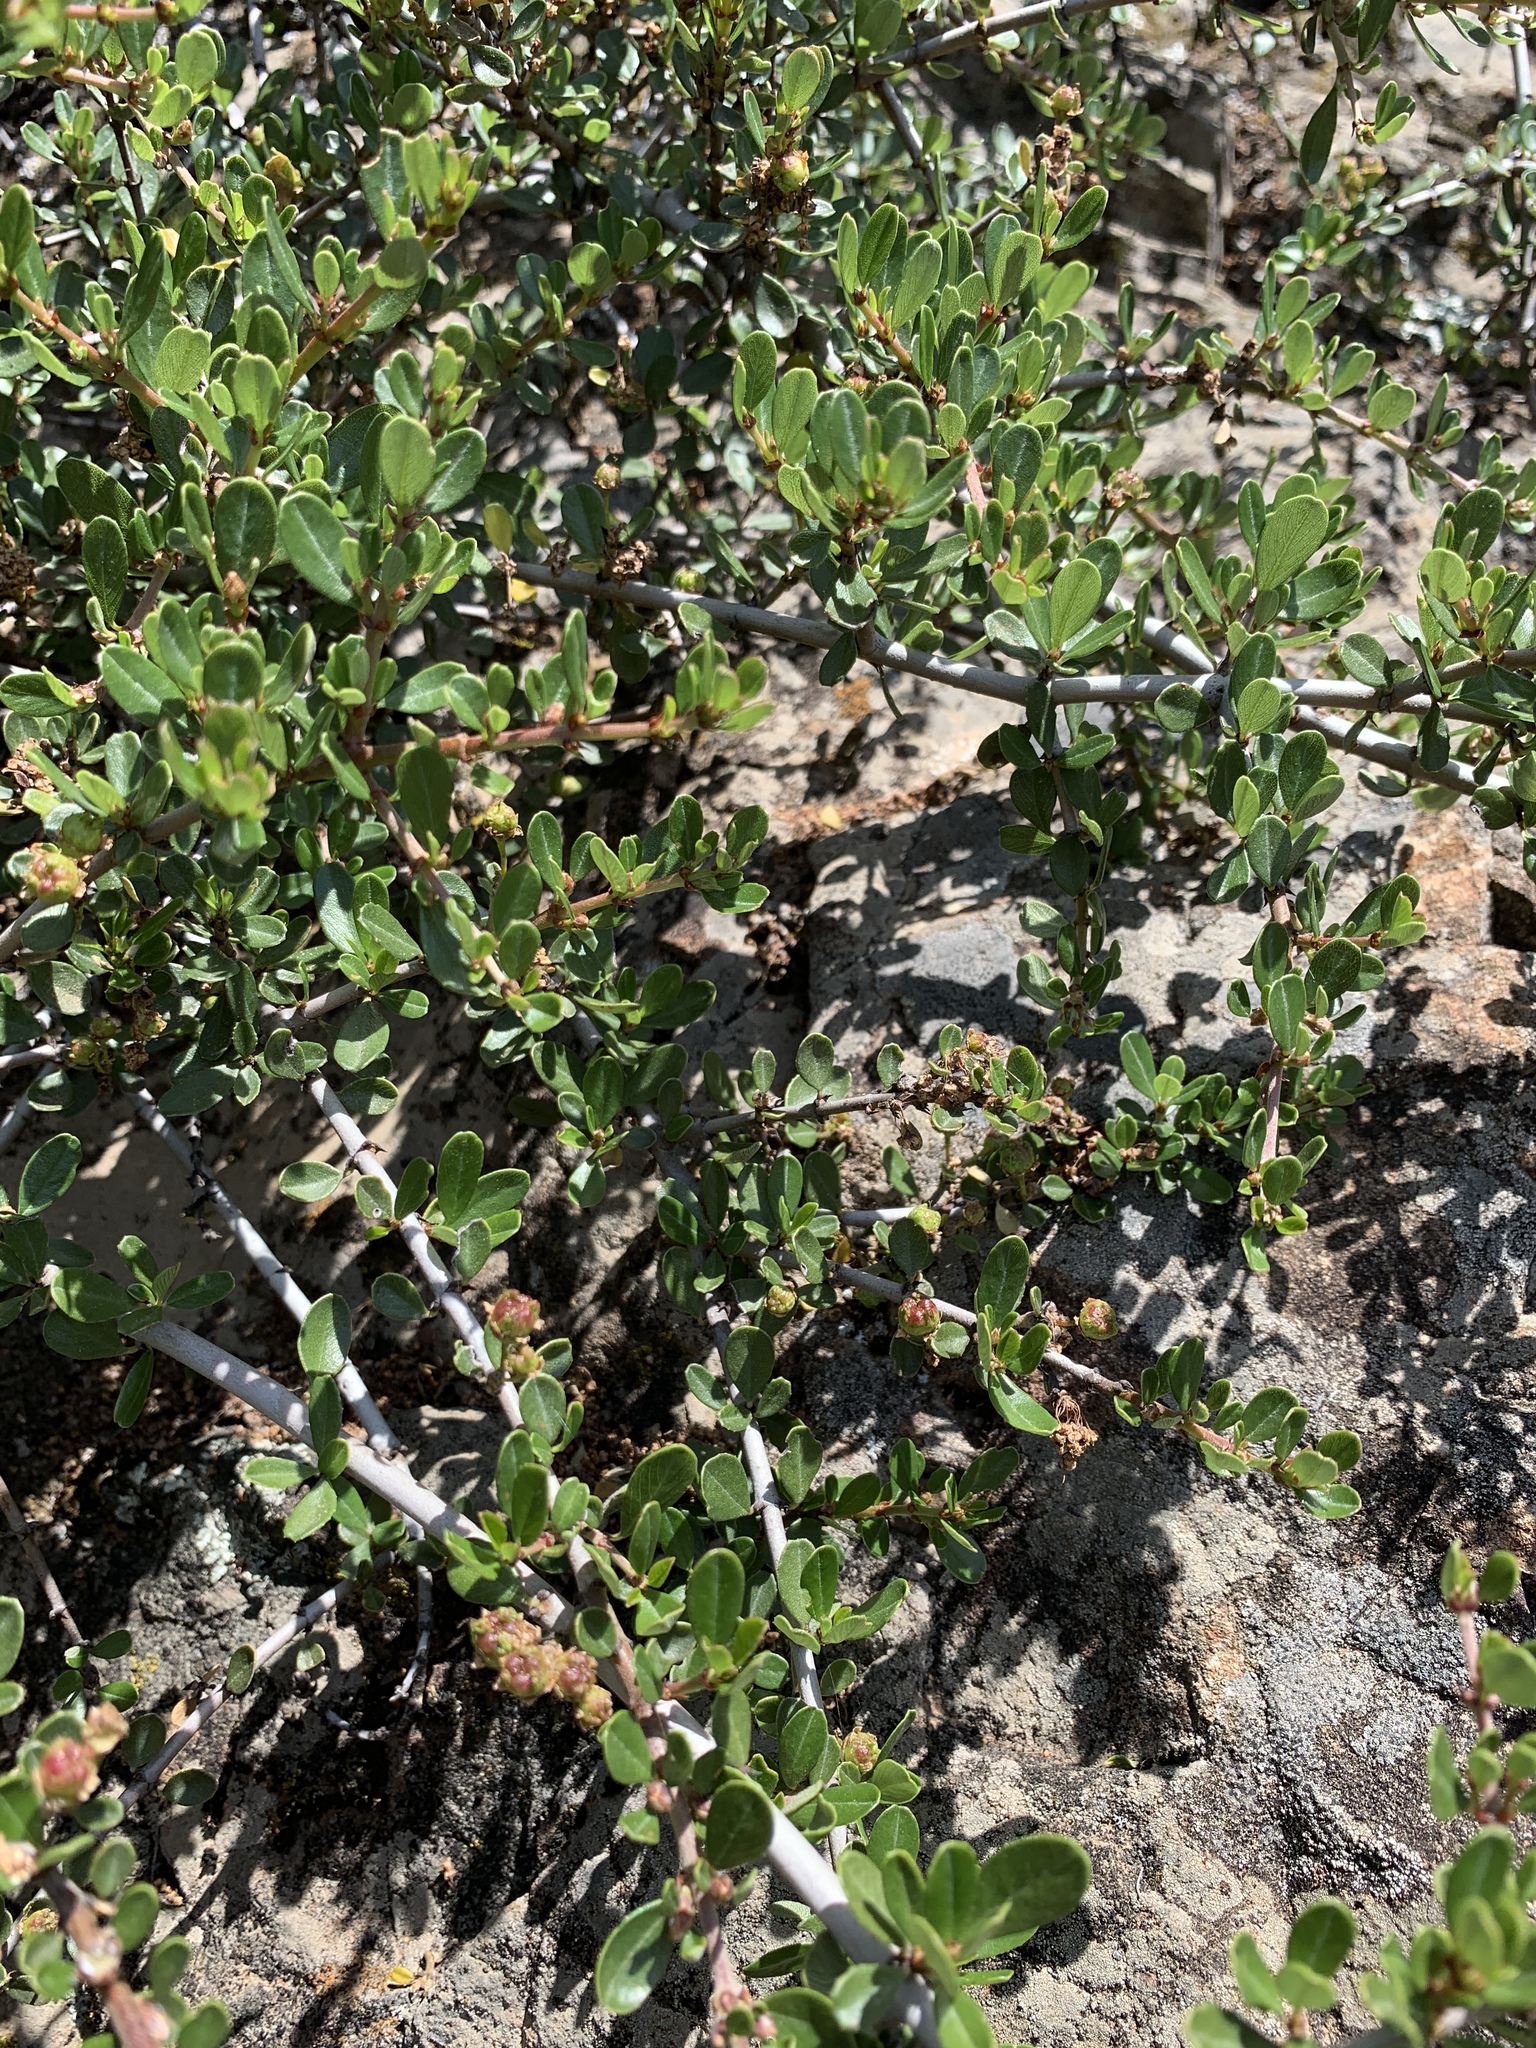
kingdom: Plantae
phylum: Tracheophyta
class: Magnoliopsida
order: Rosales
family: Rhamnaceae
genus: Ceanothus
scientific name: Ceanothus cuneatus
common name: Cuneate ceanothus
